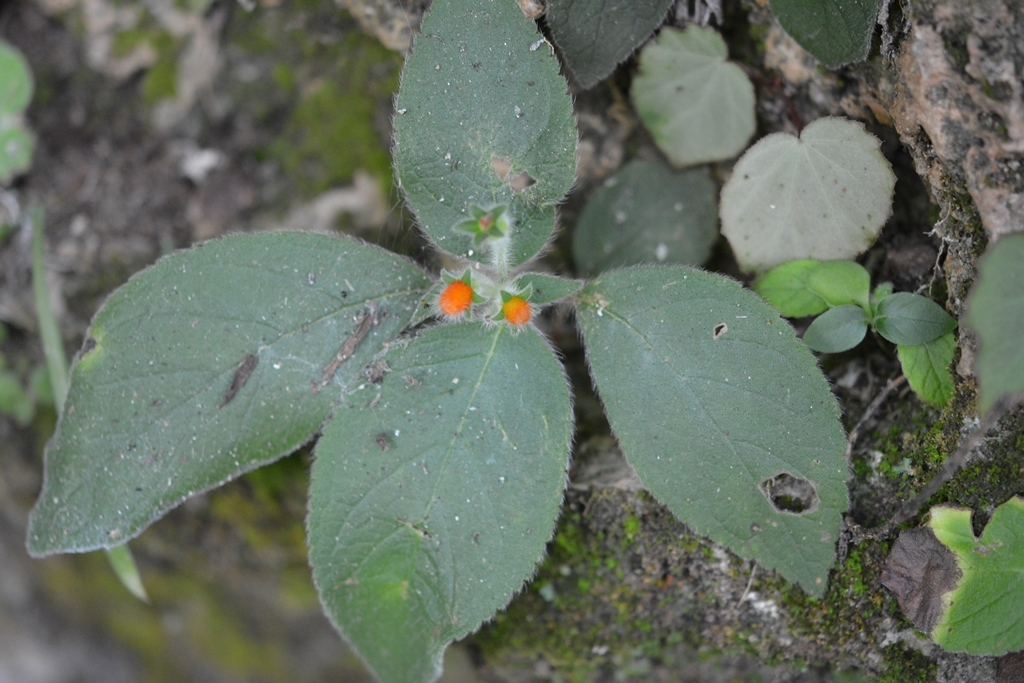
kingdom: Plantae
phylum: Tracheophyta
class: Magnoliopsida
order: Lamiales
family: Gesneriaceae
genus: Kohleria
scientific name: Kohleria rugata
